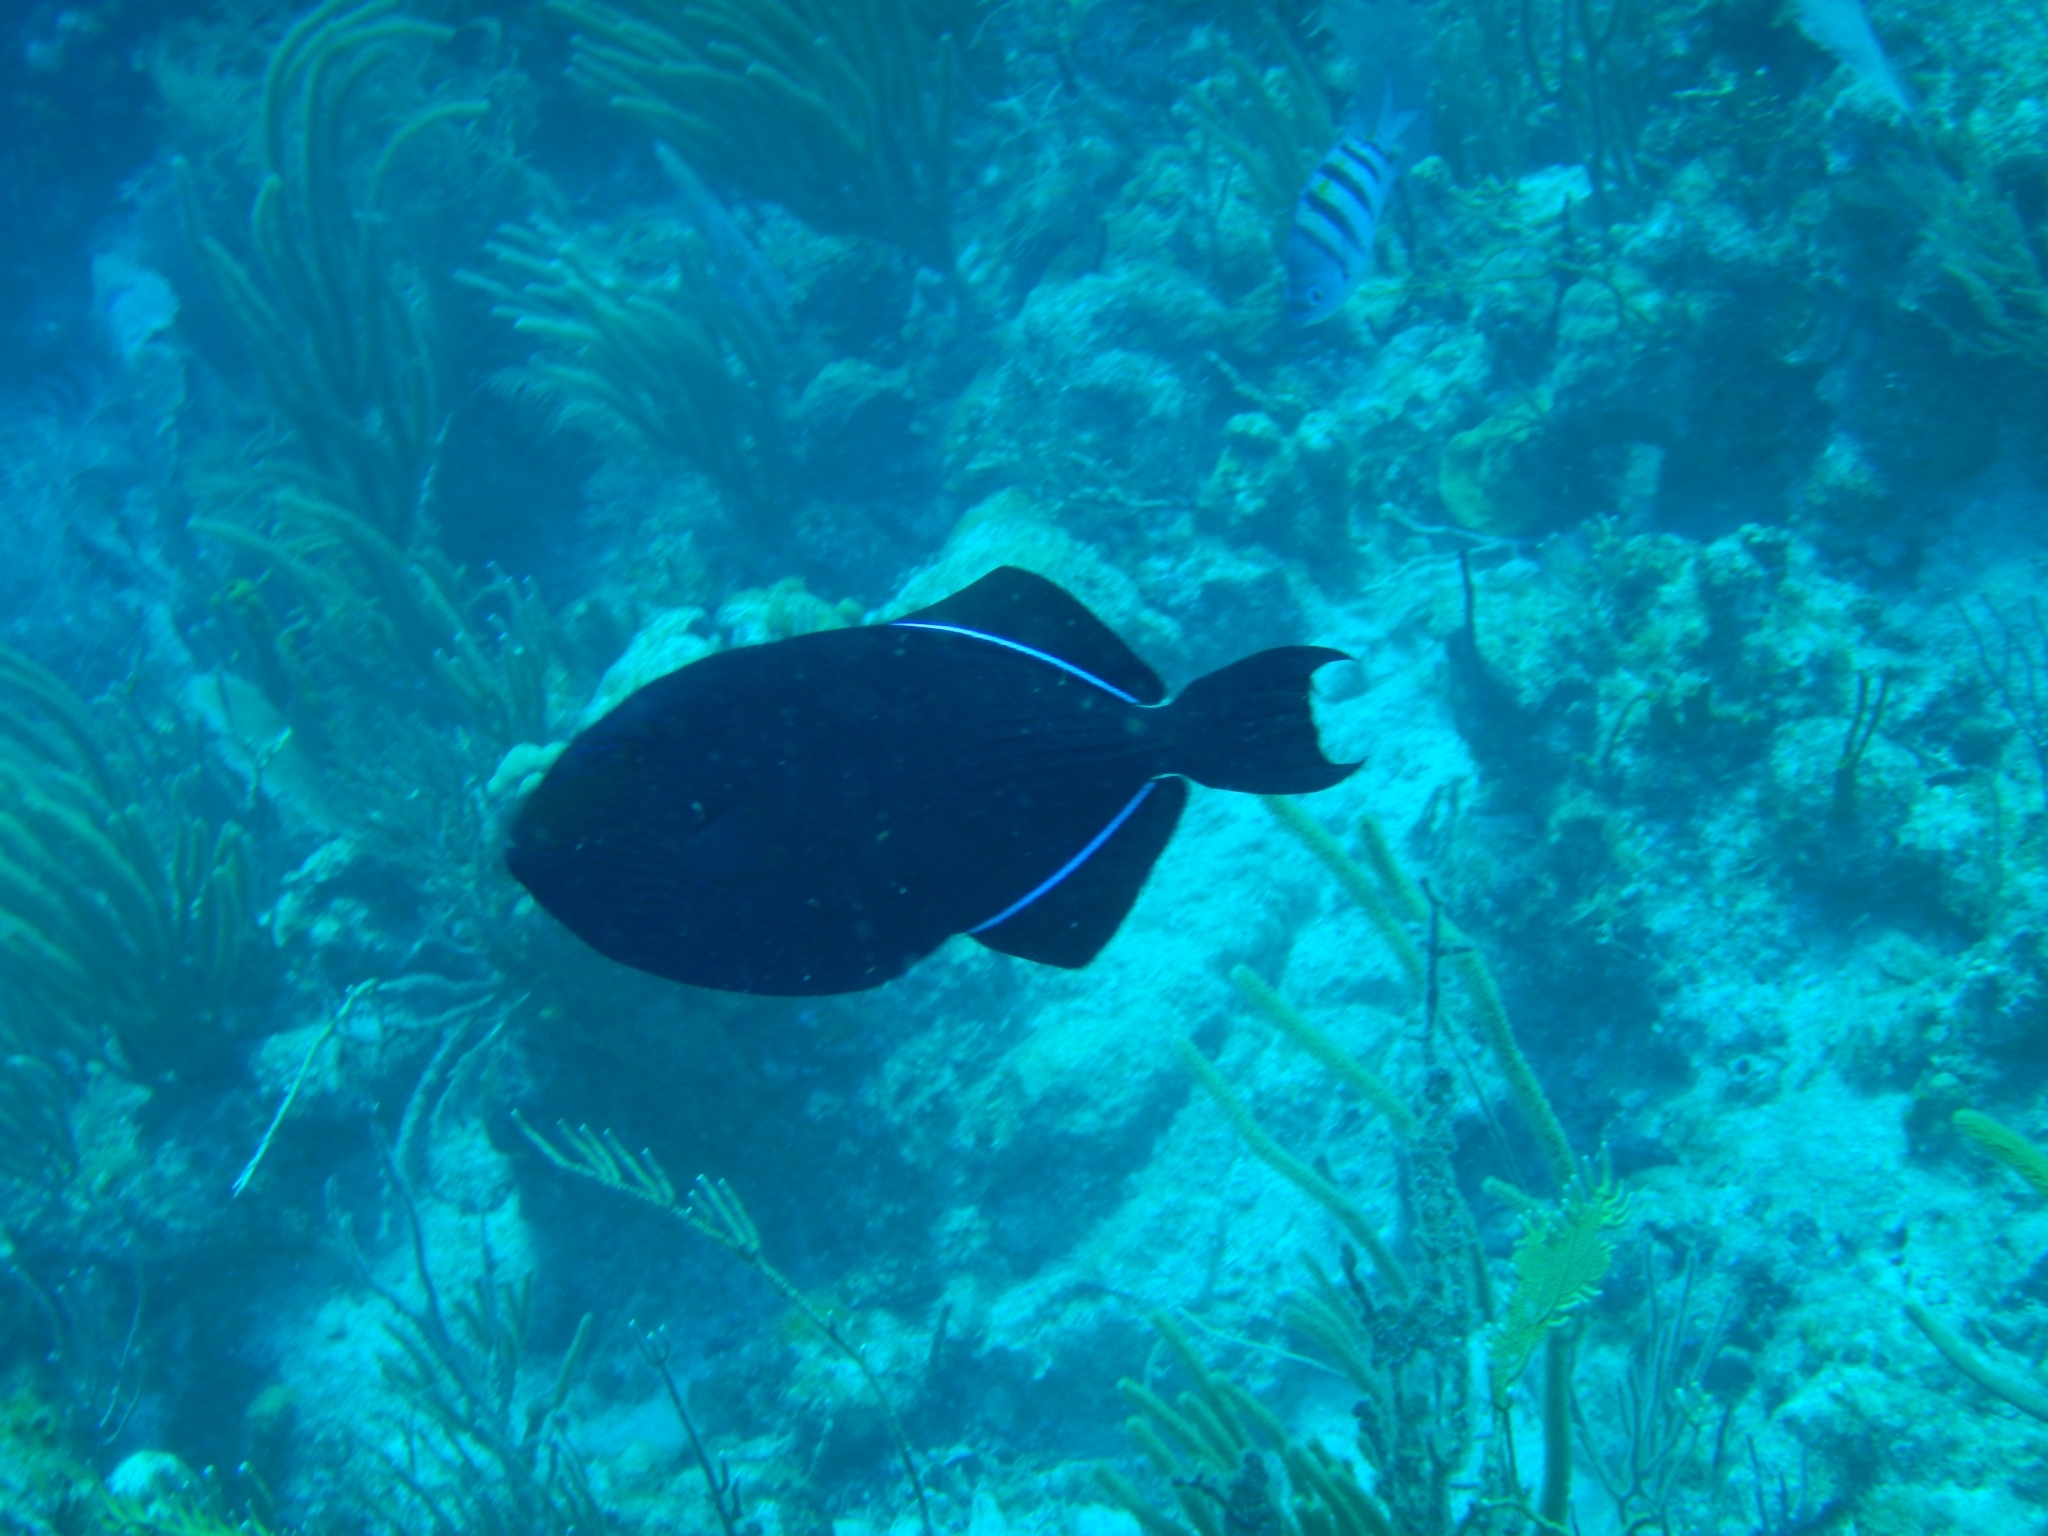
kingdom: Animalia
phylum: Chordata
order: Tetraodontiformes
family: Balistidae
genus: Melichthys
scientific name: Melichthys niger
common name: Black durgon
